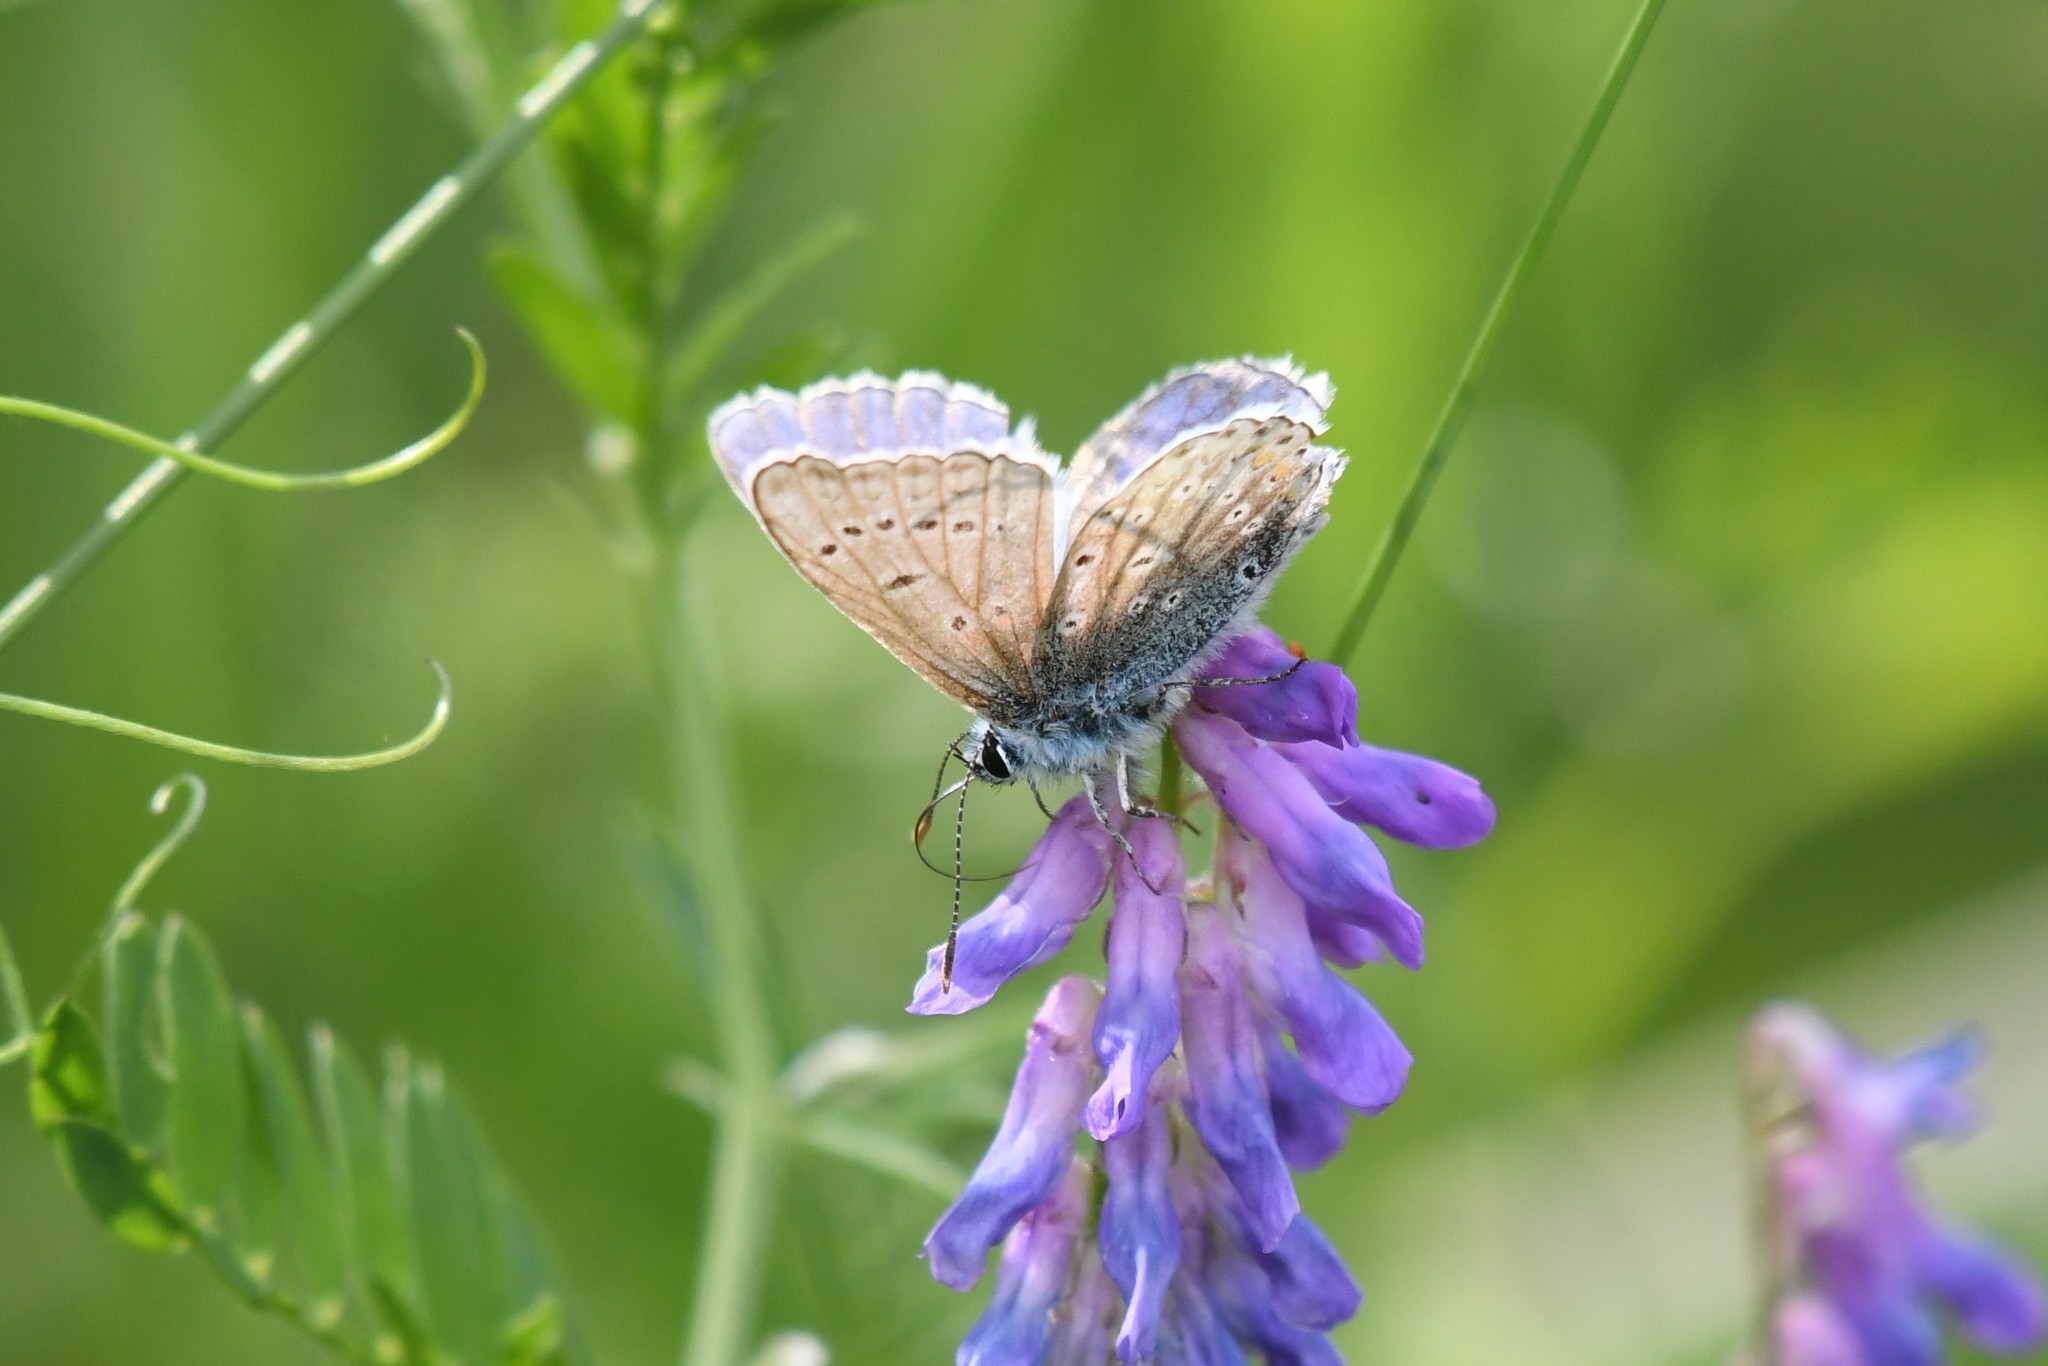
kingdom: Animalia
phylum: Arthropoda
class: Insecta
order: Lepidoptera
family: Lycaenidae
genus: Polyommatus
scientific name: Polyommatus icarus
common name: Common blue
